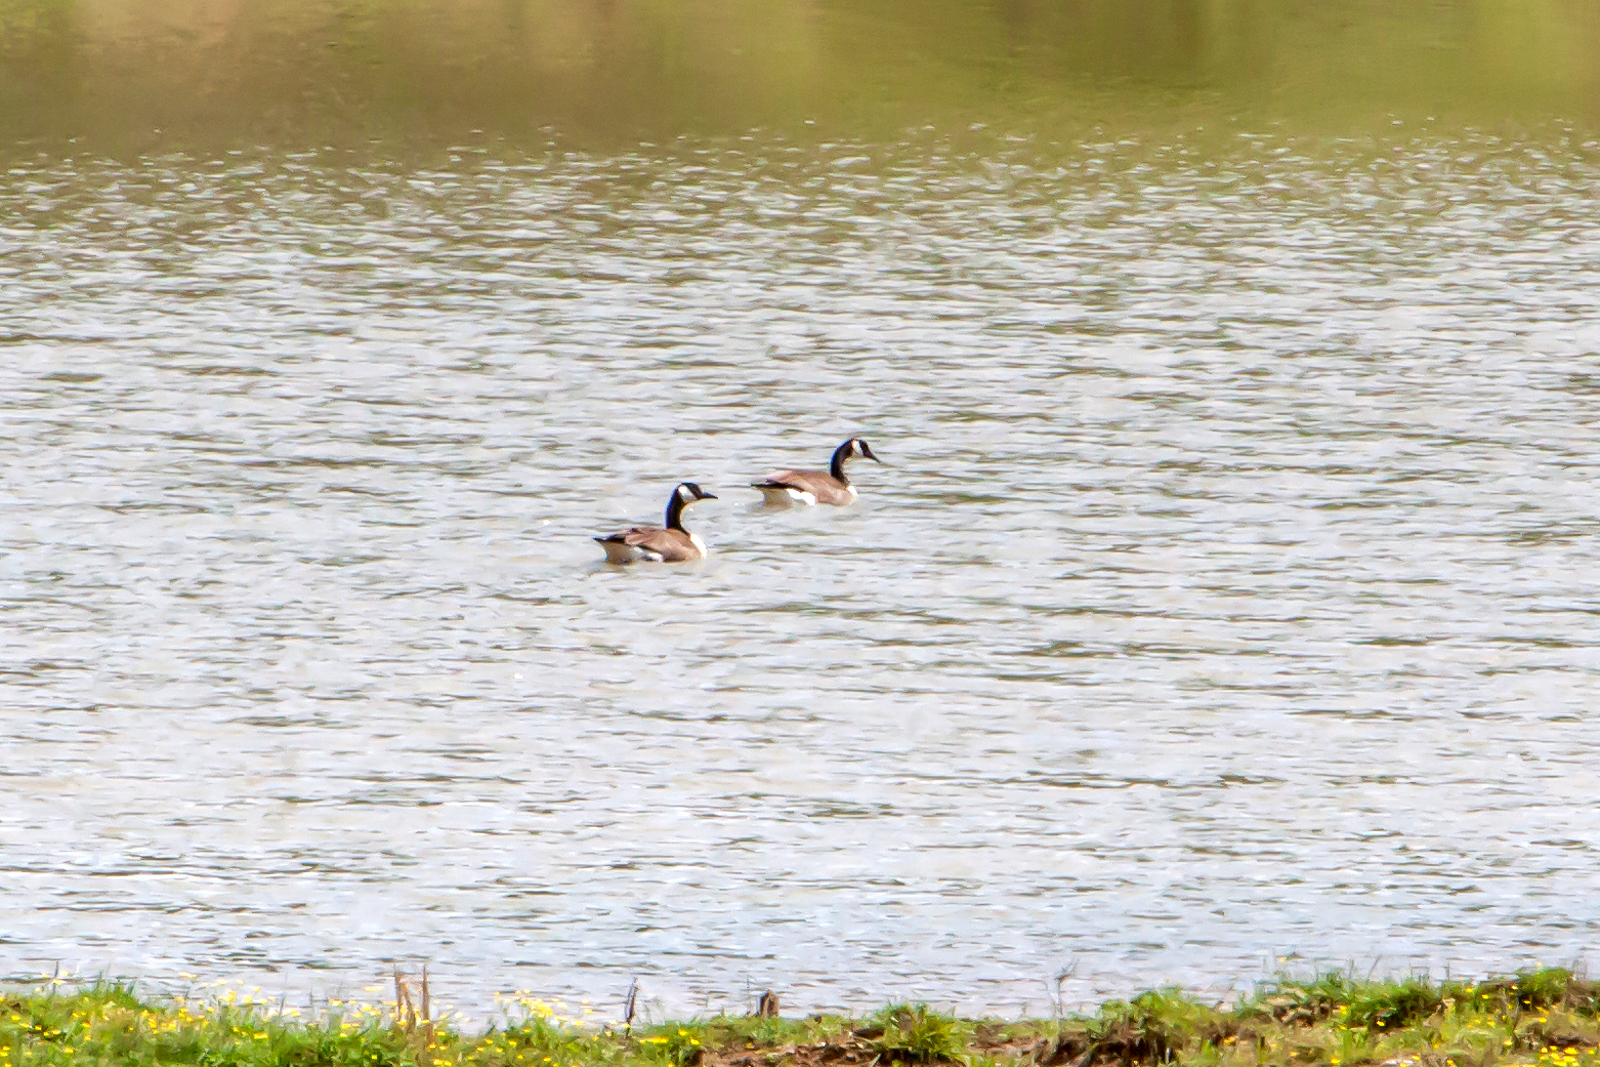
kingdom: Animalia
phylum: Chordata
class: Aves
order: Anseriformes
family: Anatidae
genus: Branta
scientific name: Branta canadensis
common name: Canada goose
